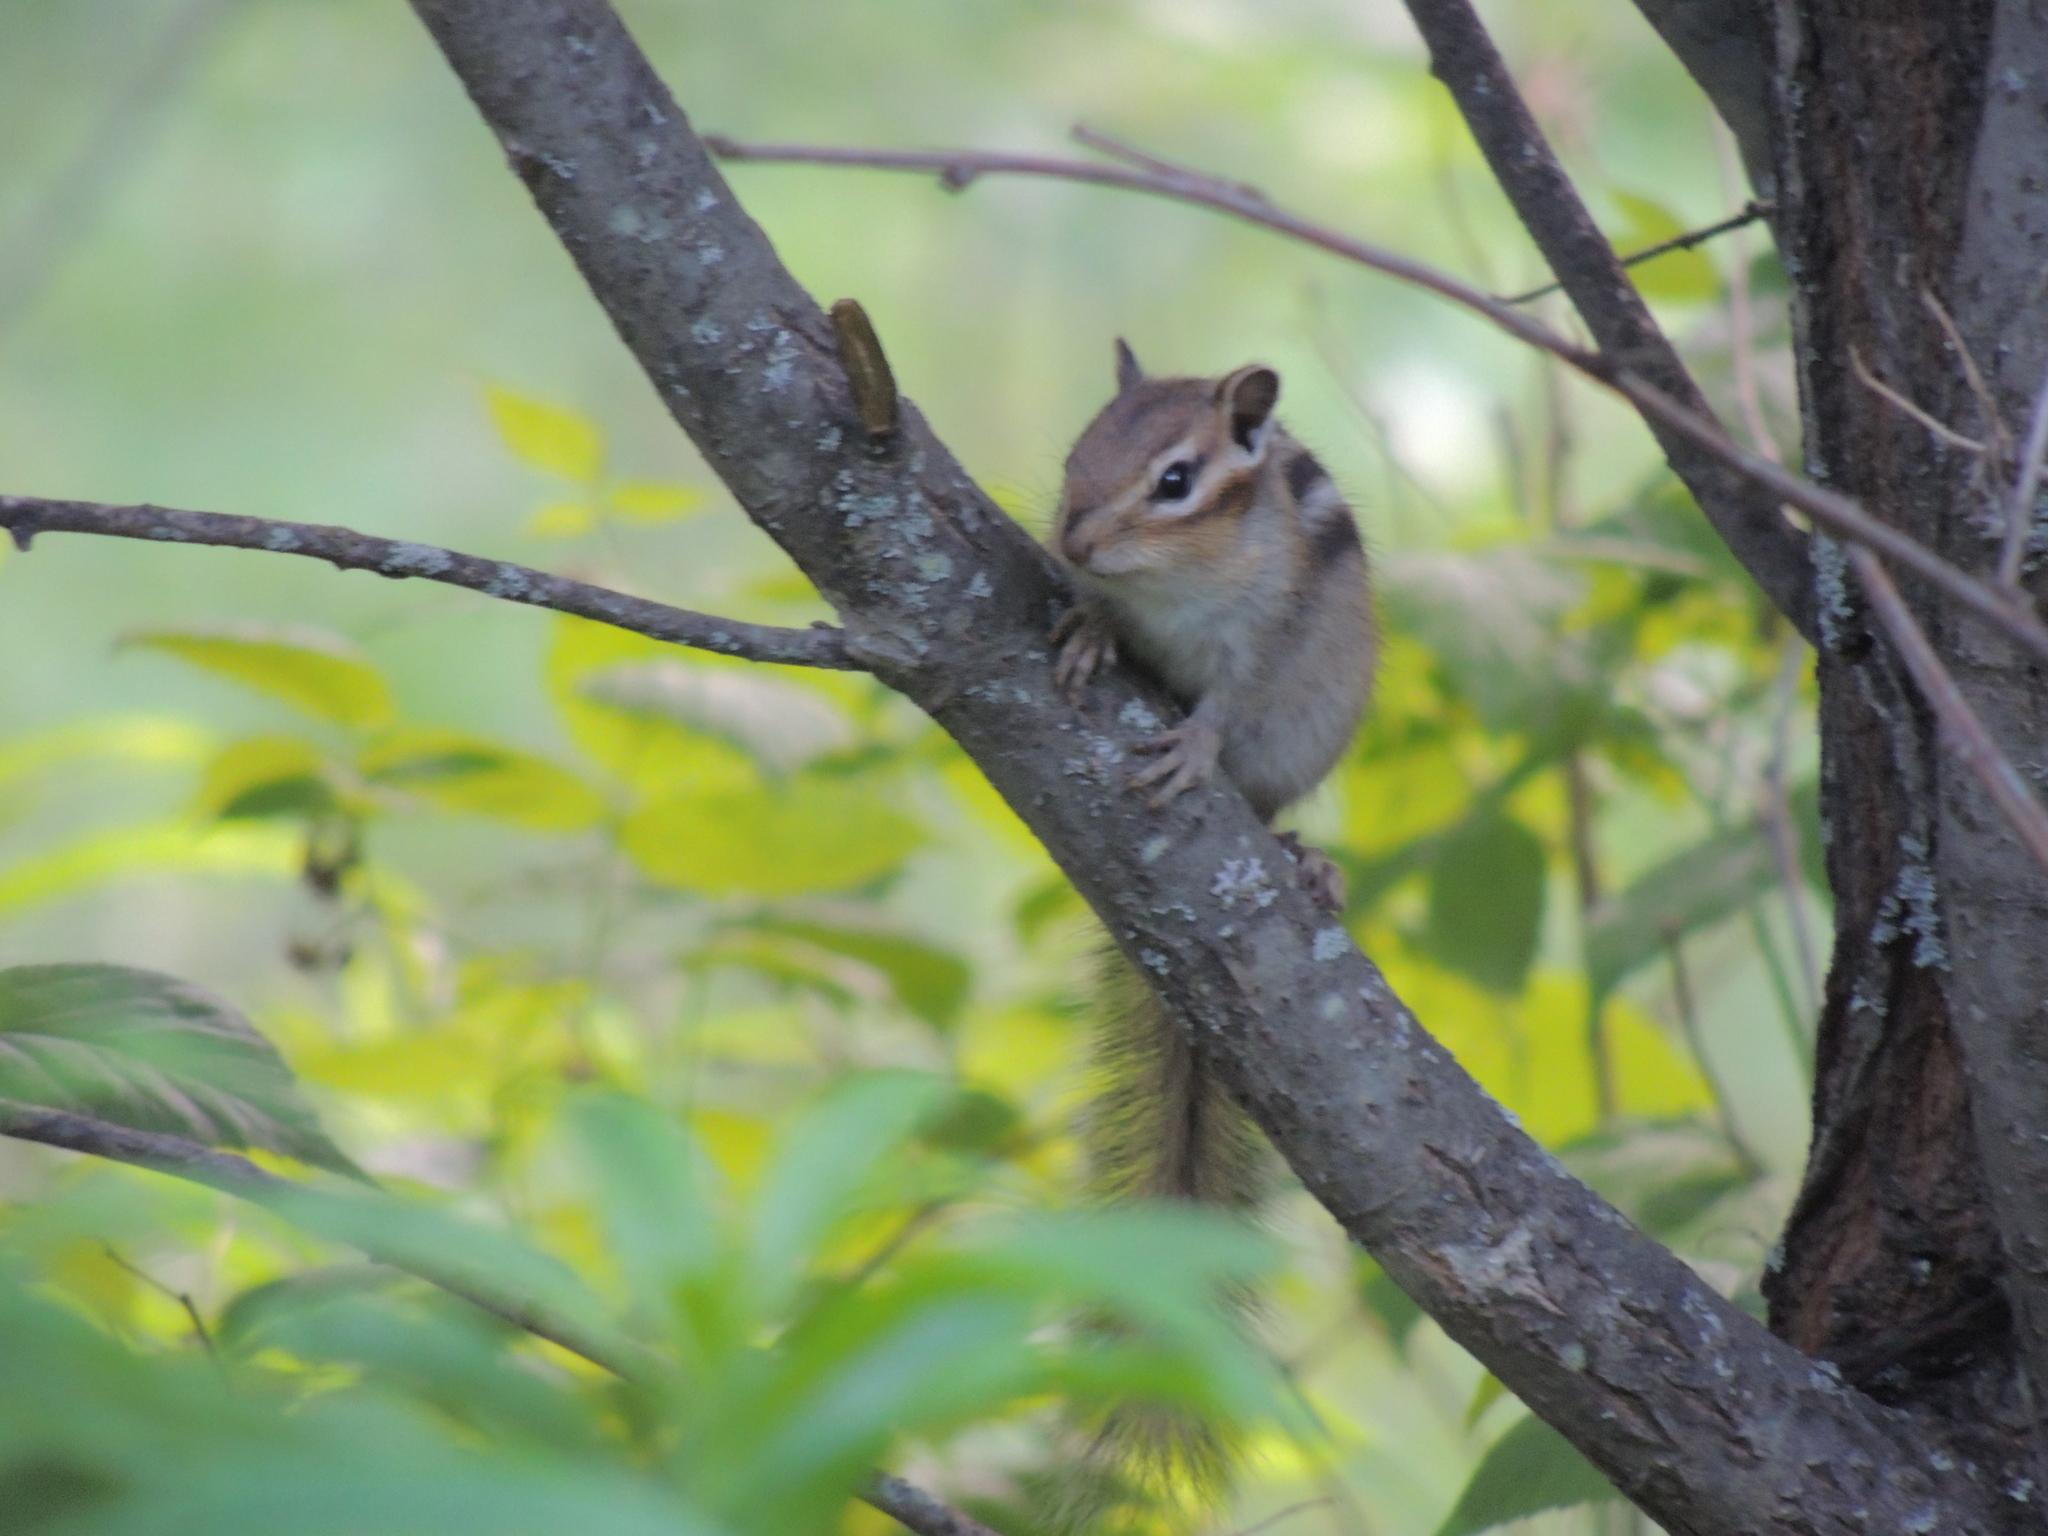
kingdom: Animalia
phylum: Chordata
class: Mammalia
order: Rodentia
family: Sciuridae
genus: Tamias
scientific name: Tamias sibiricus
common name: Siberian chipmunk
